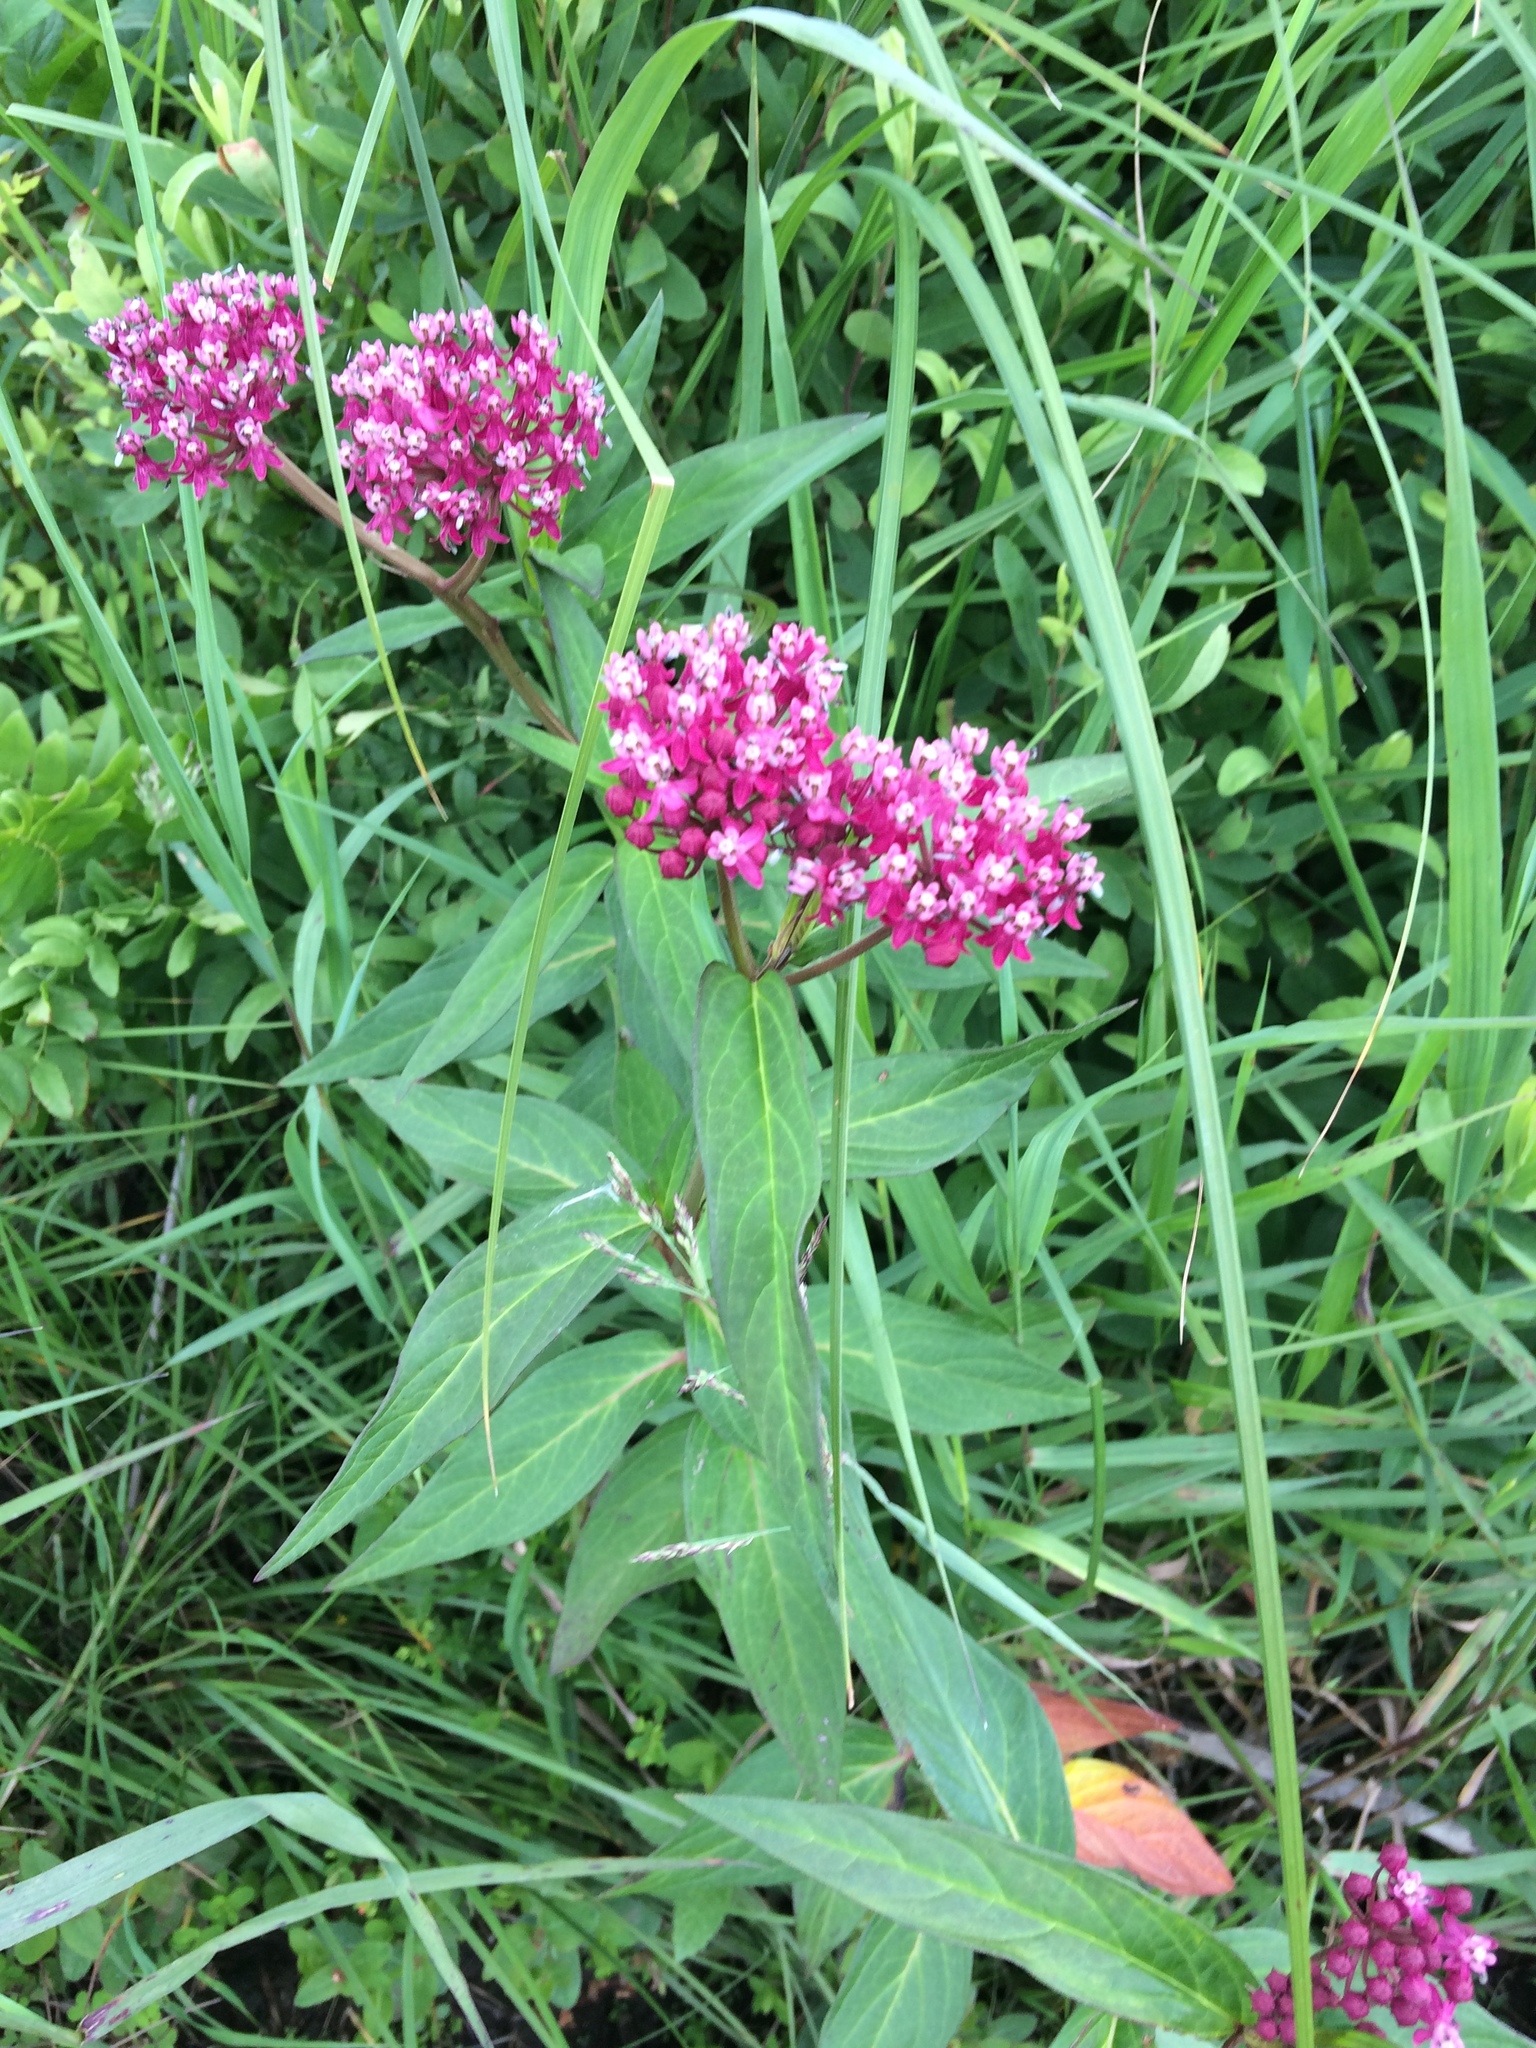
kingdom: Plantae
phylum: Tracheophyta
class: Magnoliopsida
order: Gentianales
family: Apocynaceae
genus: Asclepias
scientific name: Asclepias incarnata
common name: Swamp milkweed
